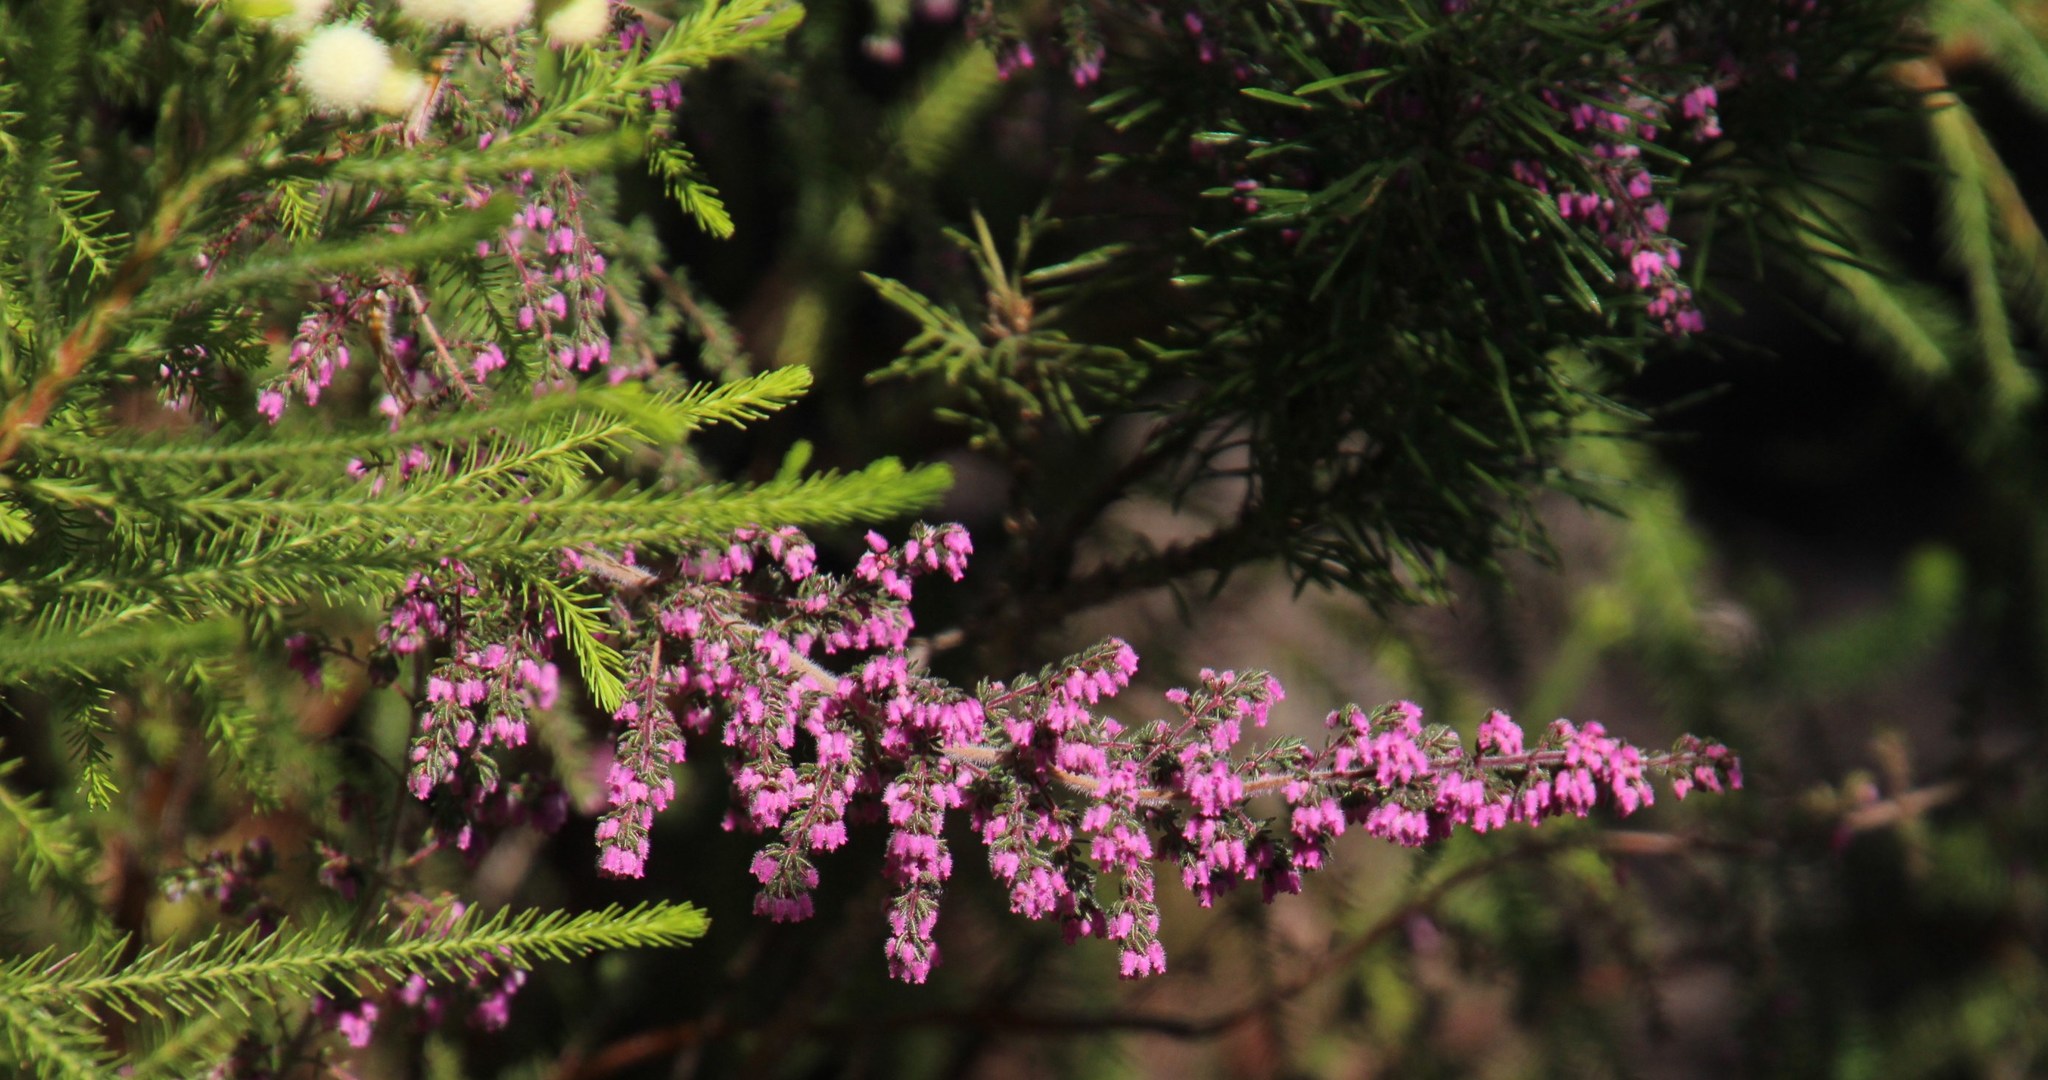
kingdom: Plantae
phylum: Tracheophyta
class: Magnoliopsida
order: Ericales
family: Ericaceae
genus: Erica
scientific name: Erica parviflora
